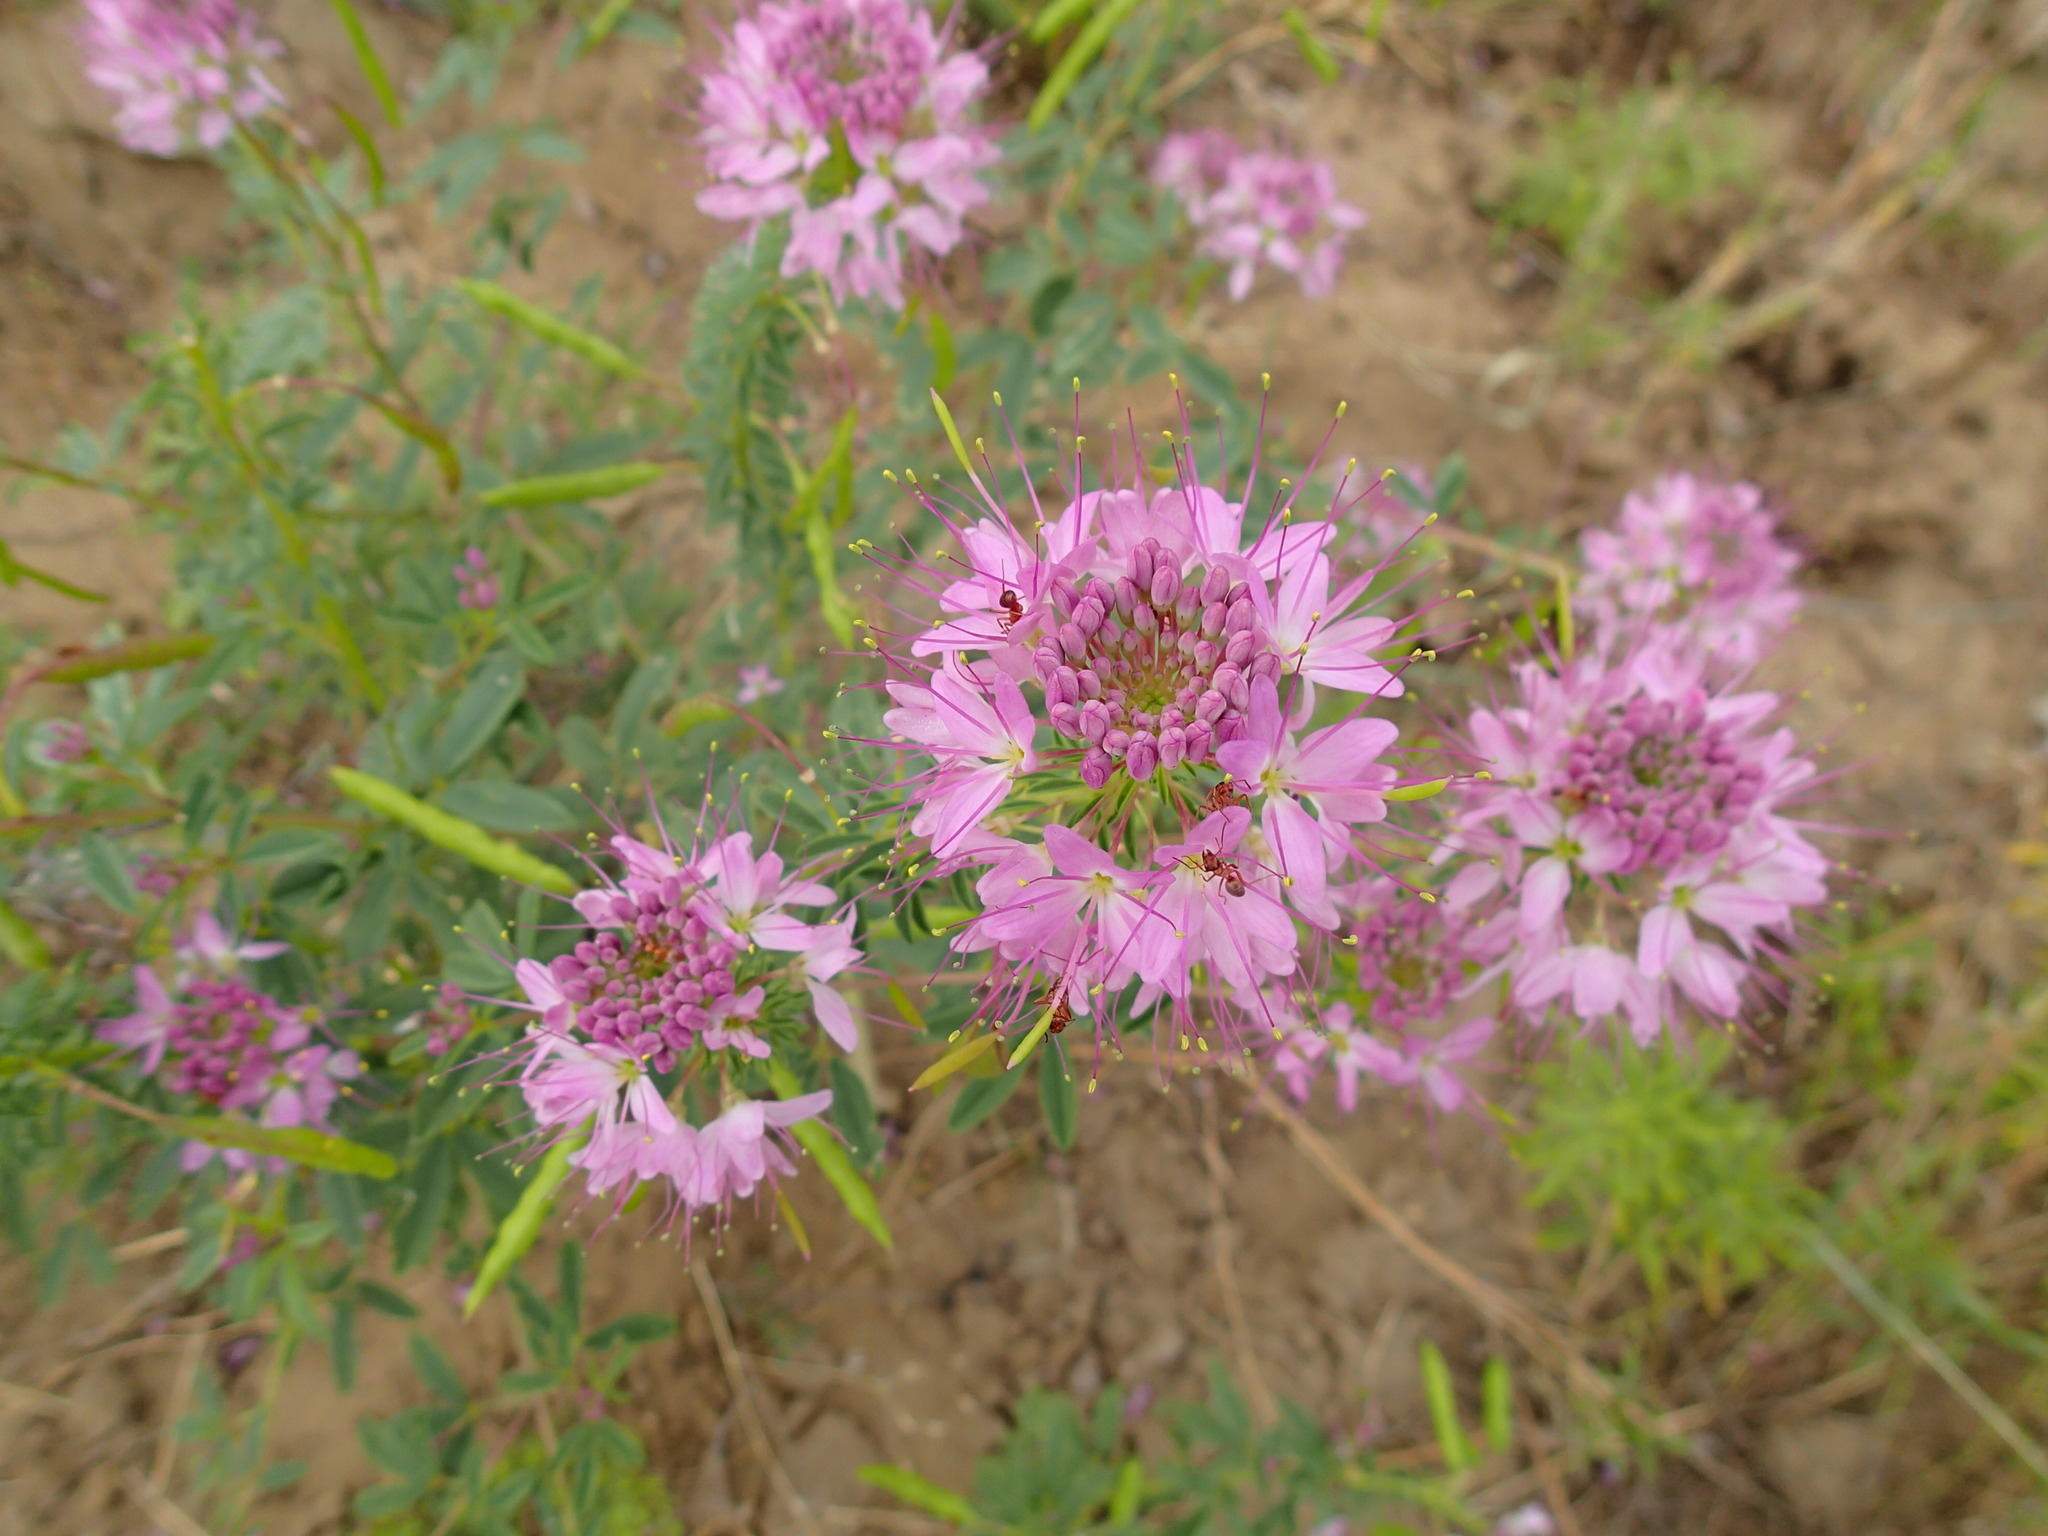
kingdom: Plantae
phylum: Tracheophyta
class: Magnoliopsida
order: Brassicales
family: Cleomaceae
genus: Cleomella
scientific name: Cleomella serrulata
